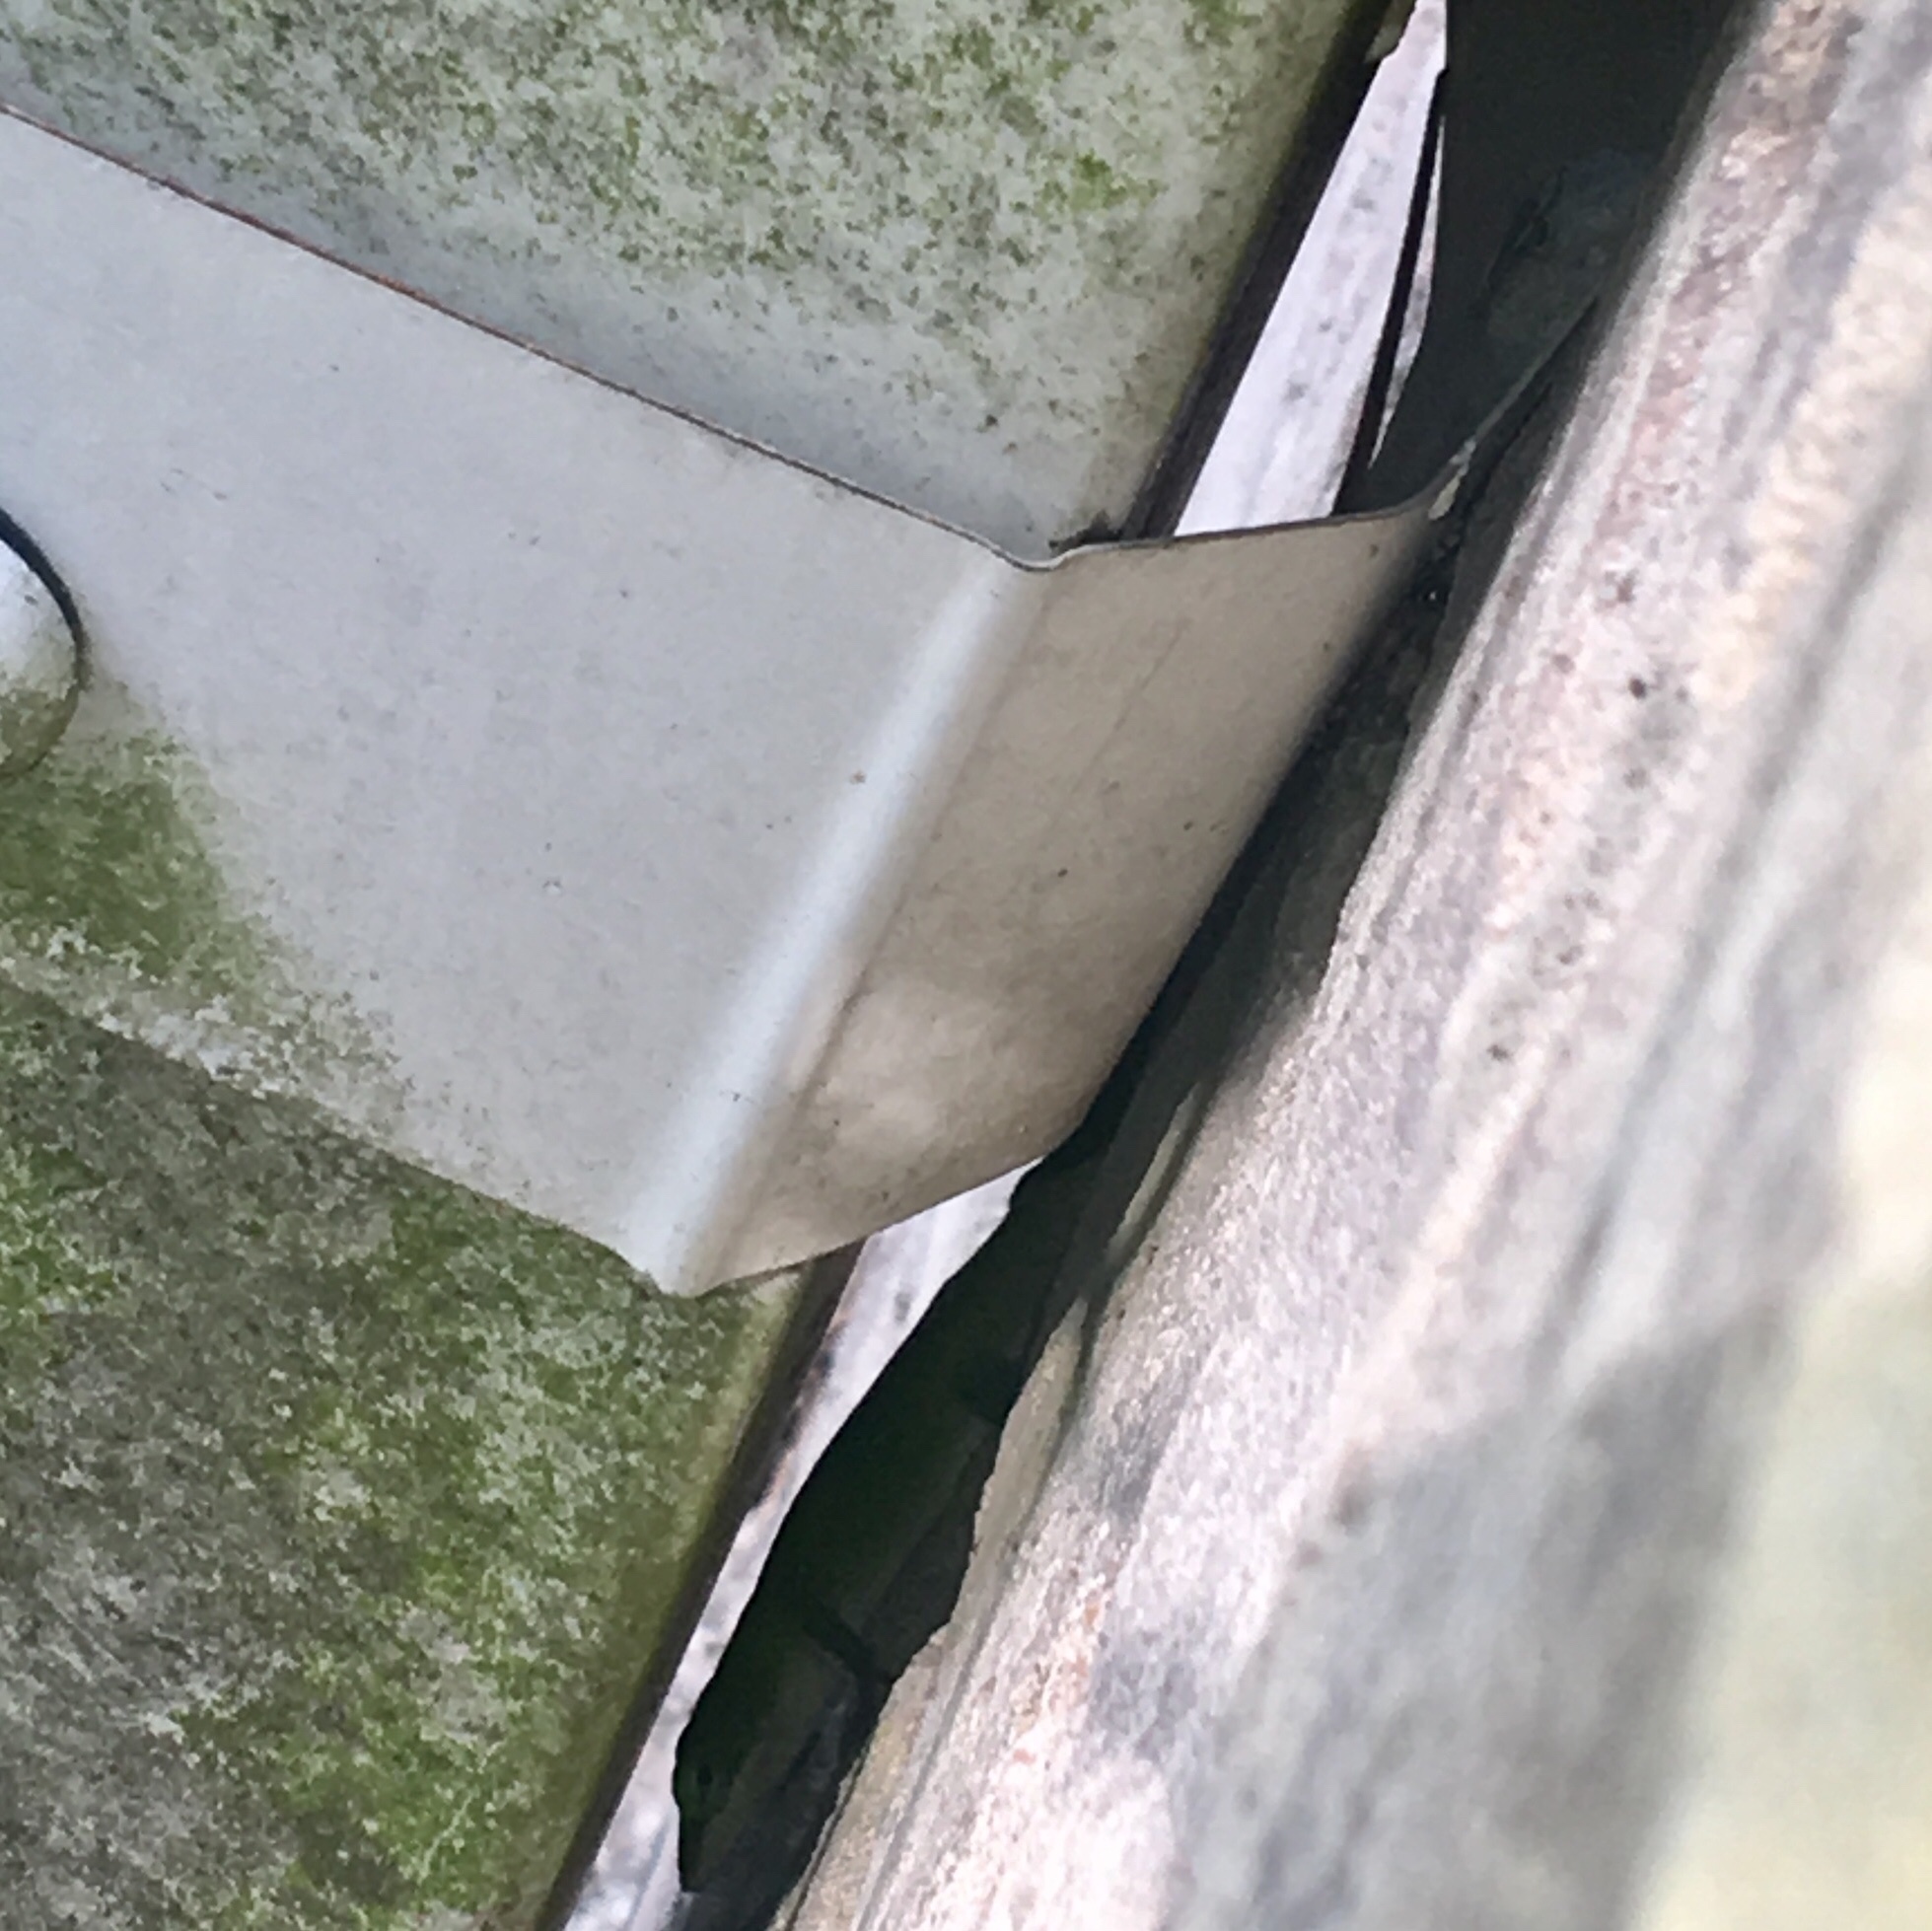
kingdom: Animalia
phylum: Chordata
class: Squamata
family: Dactyloidae
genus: Anolis
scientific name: Anolis carolinensis
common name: Green anole
